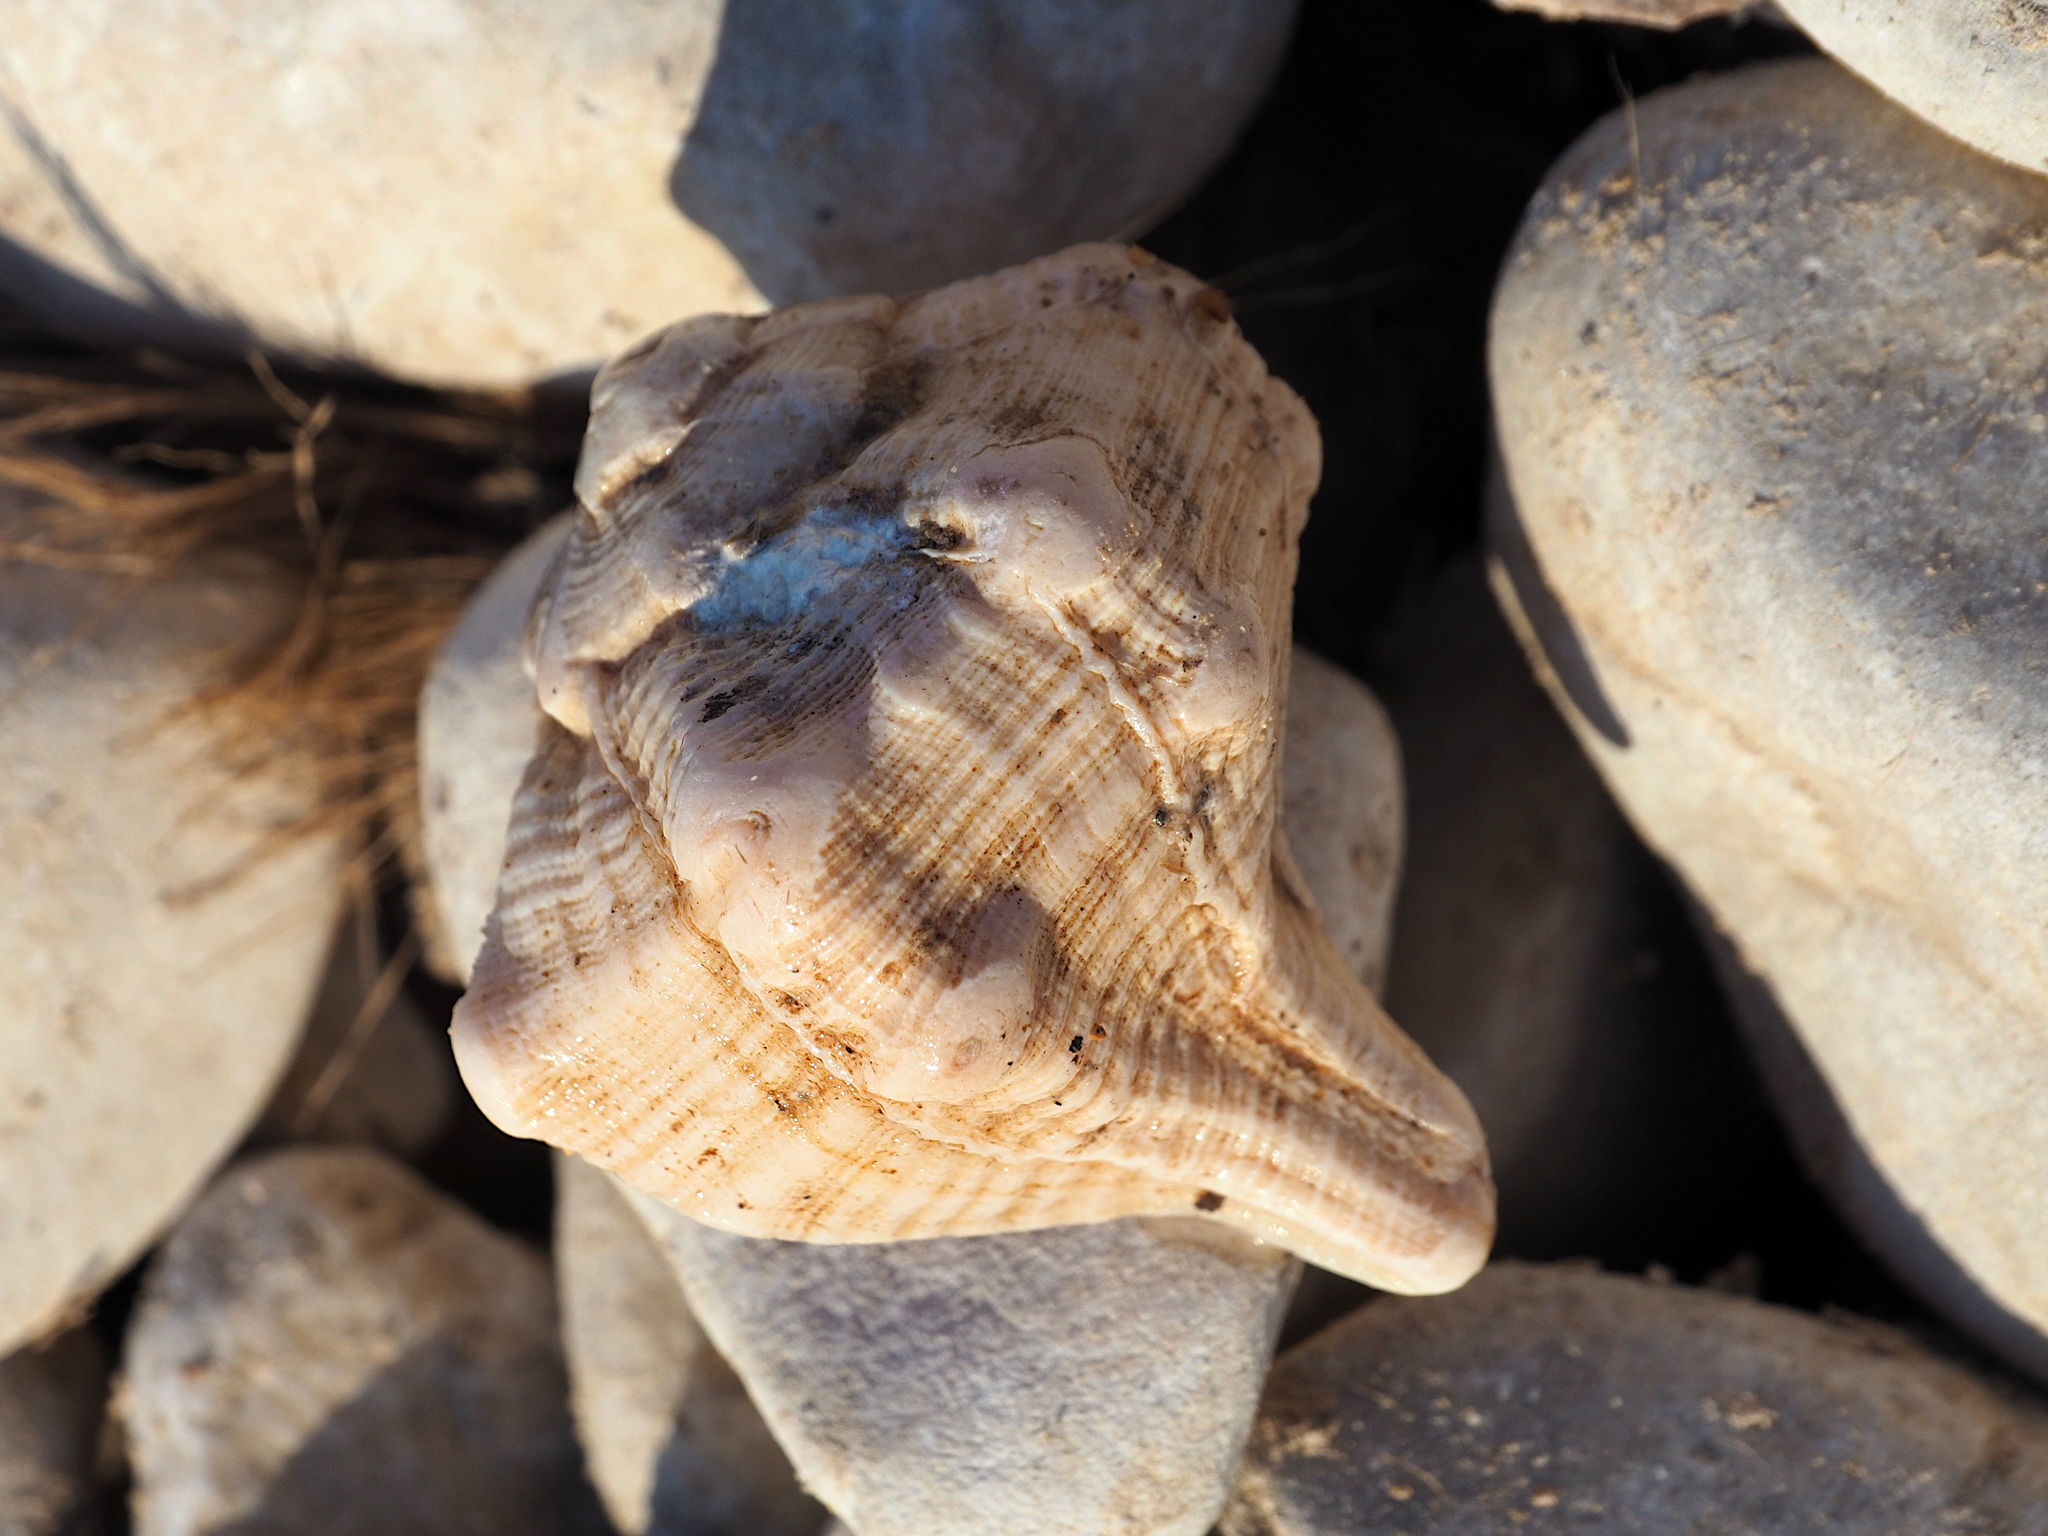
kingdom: Animalia
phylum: Mollusca
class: Gastropoda
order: Neogastropoda
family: Muricidae
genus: Bolinus
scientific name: Bolinus brandaris
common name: Dye murex
